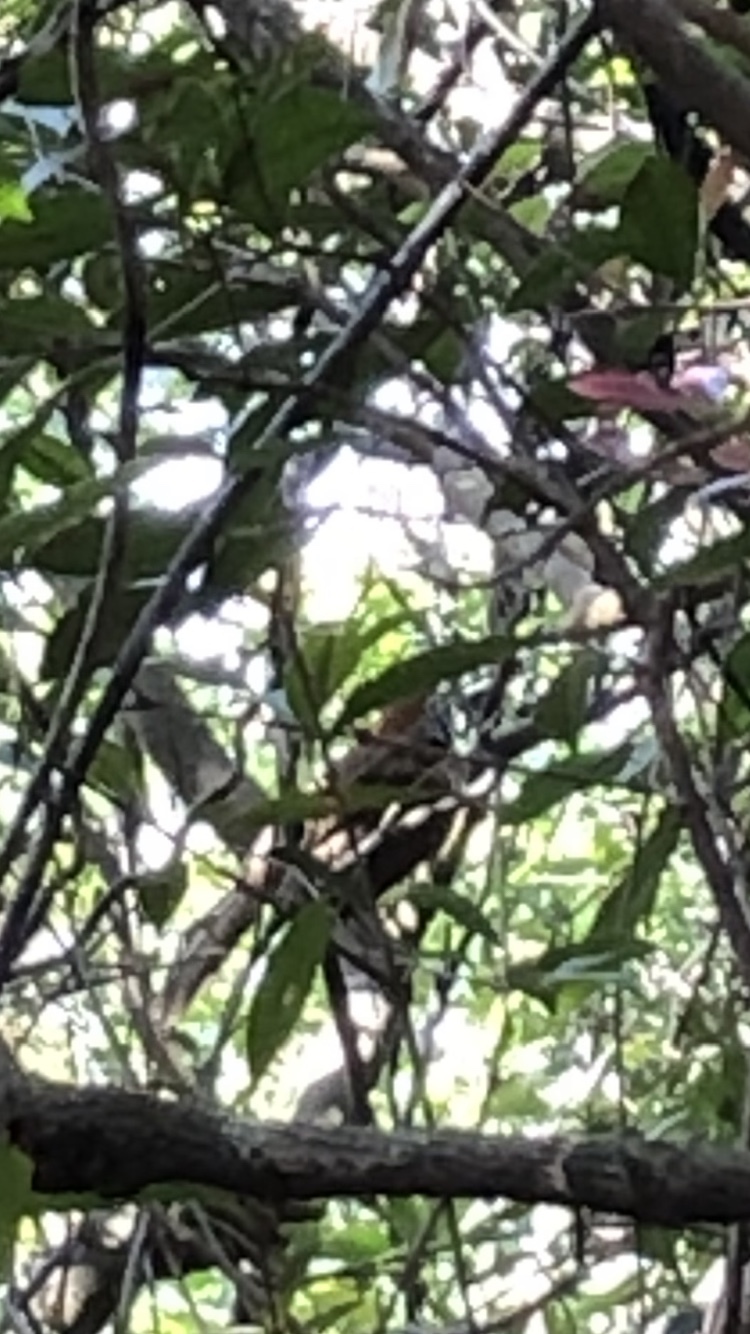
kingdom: Animalia
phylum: Chordata
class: Aves
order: Passeriformes
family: Leiothrichidae
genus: Garrulax
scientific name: Garrulax pectoralis
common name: Greater necklaced laughingthrush
